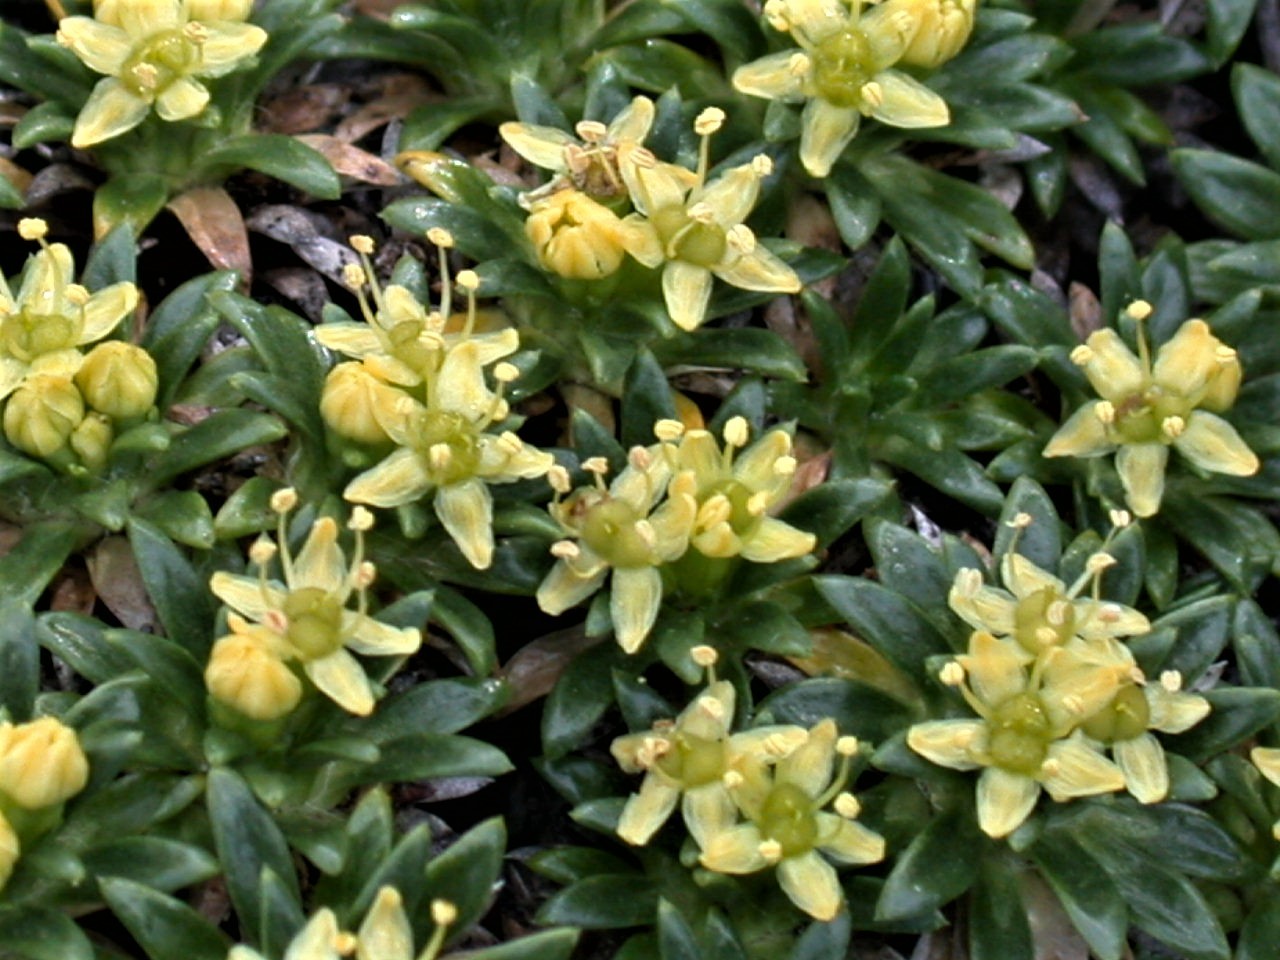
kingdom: Plantae
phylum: Tracheophyta
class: Magnoliopsida
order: Apiales
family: Apiaceae
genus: Azorella
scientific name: Azorella monantha
